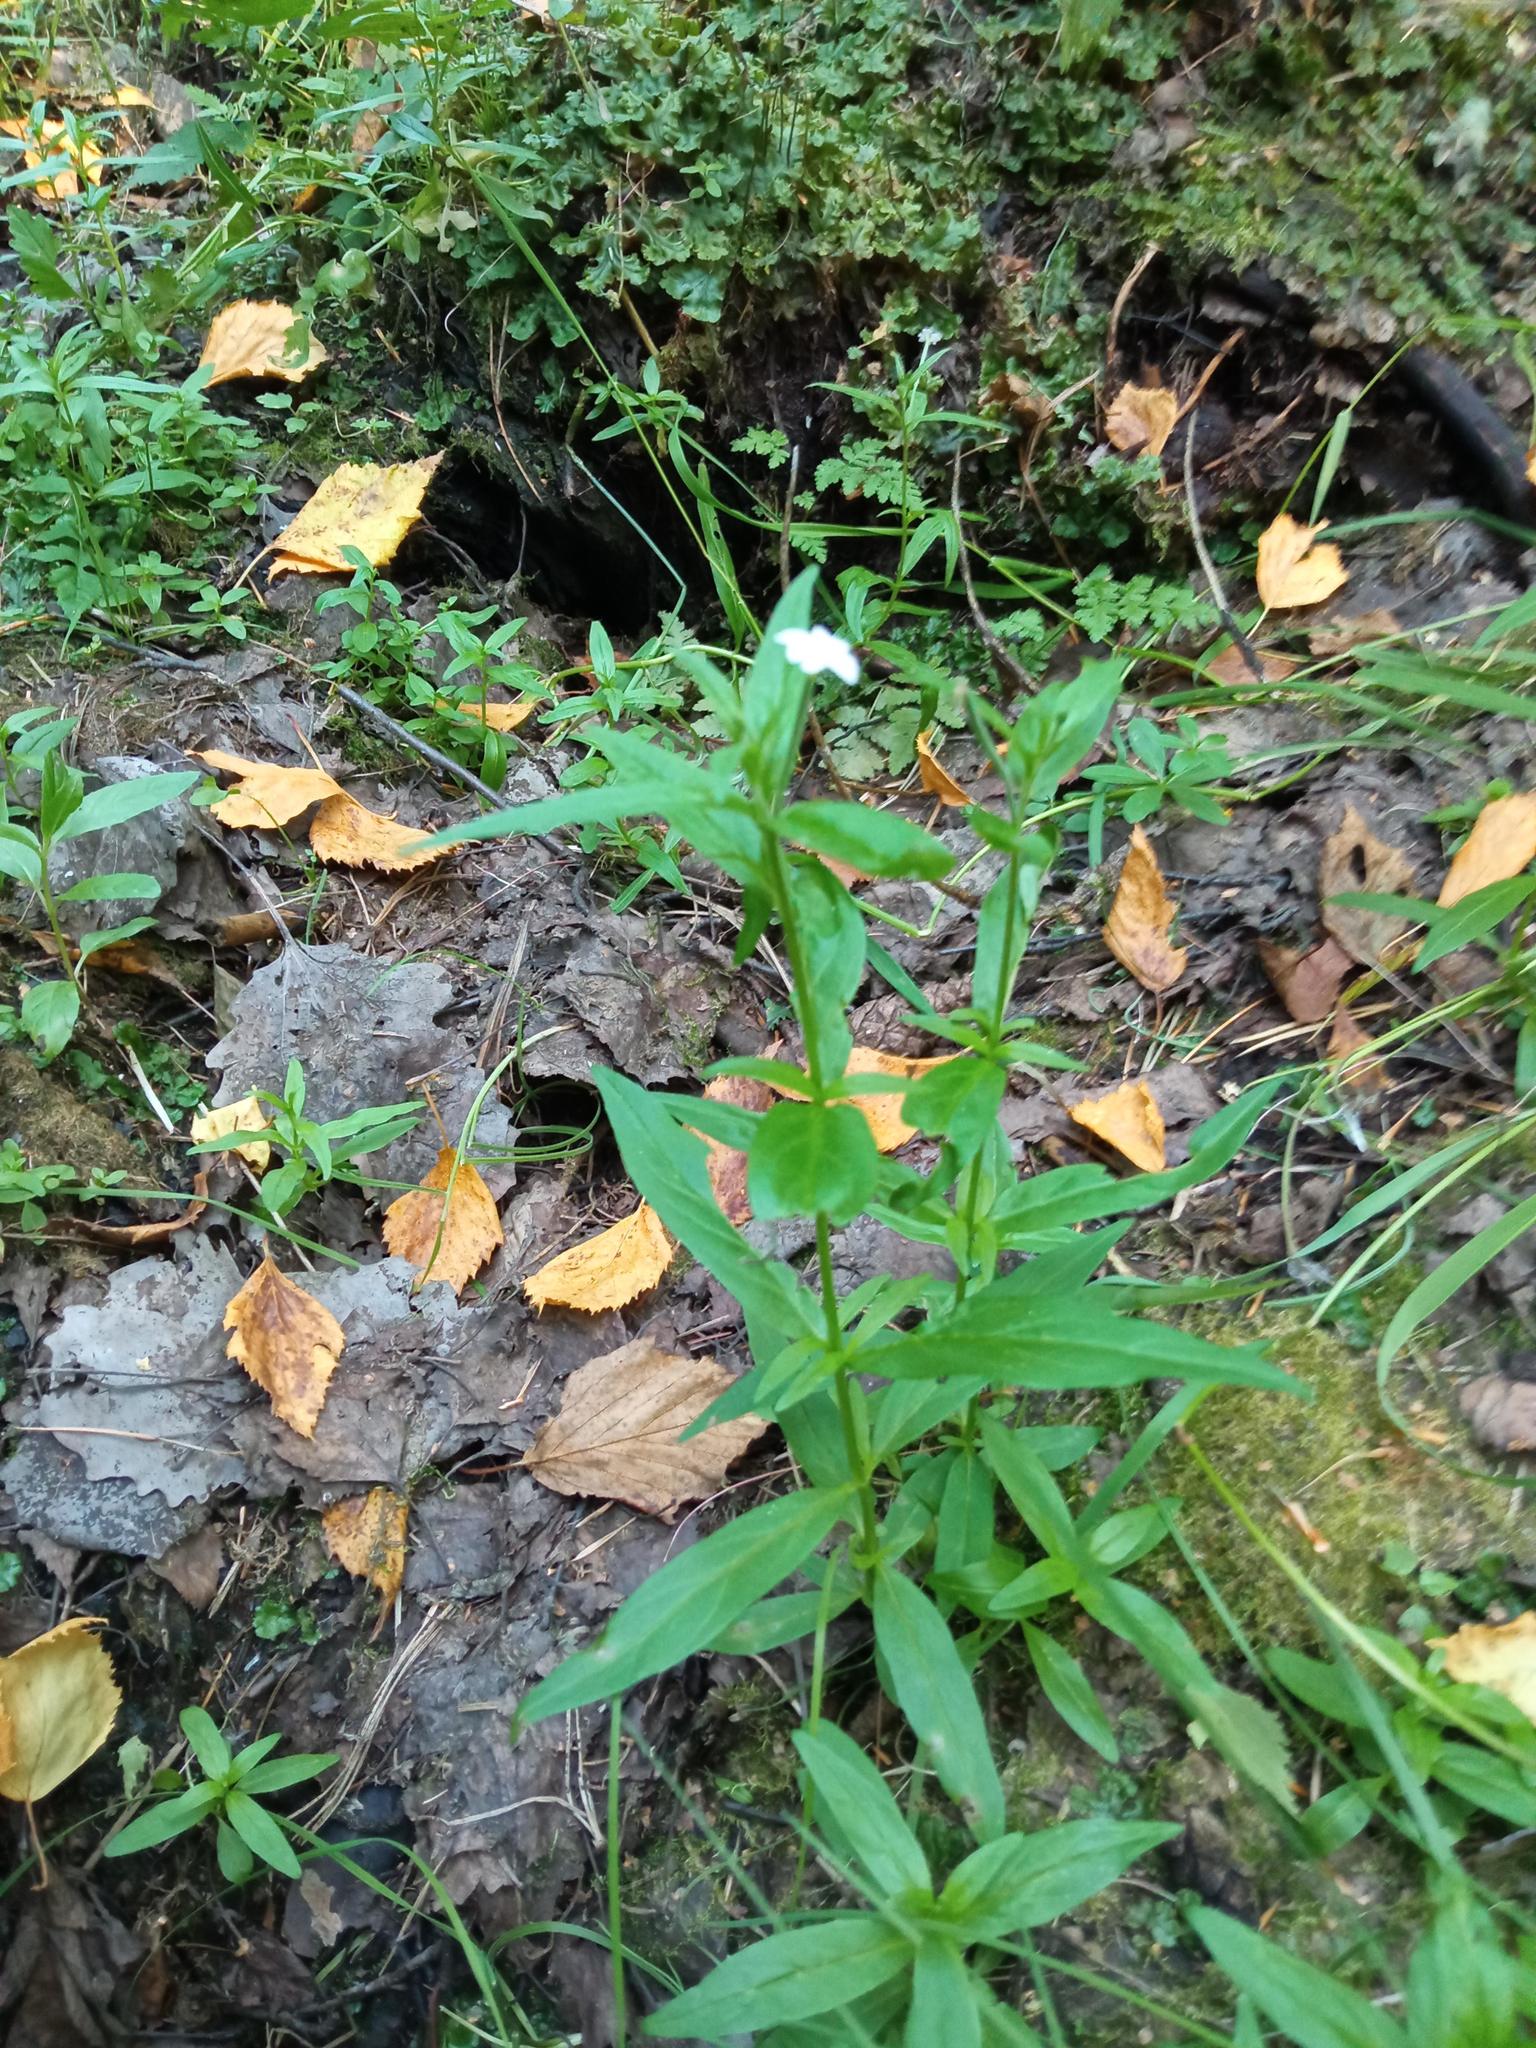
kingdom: Plantae
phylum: Tracheophyta
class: Magnoliopsida
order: Myrtales
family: Onagraceae
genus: Epilobium
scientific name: Epilobium palustre
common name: Marsh willowherb
